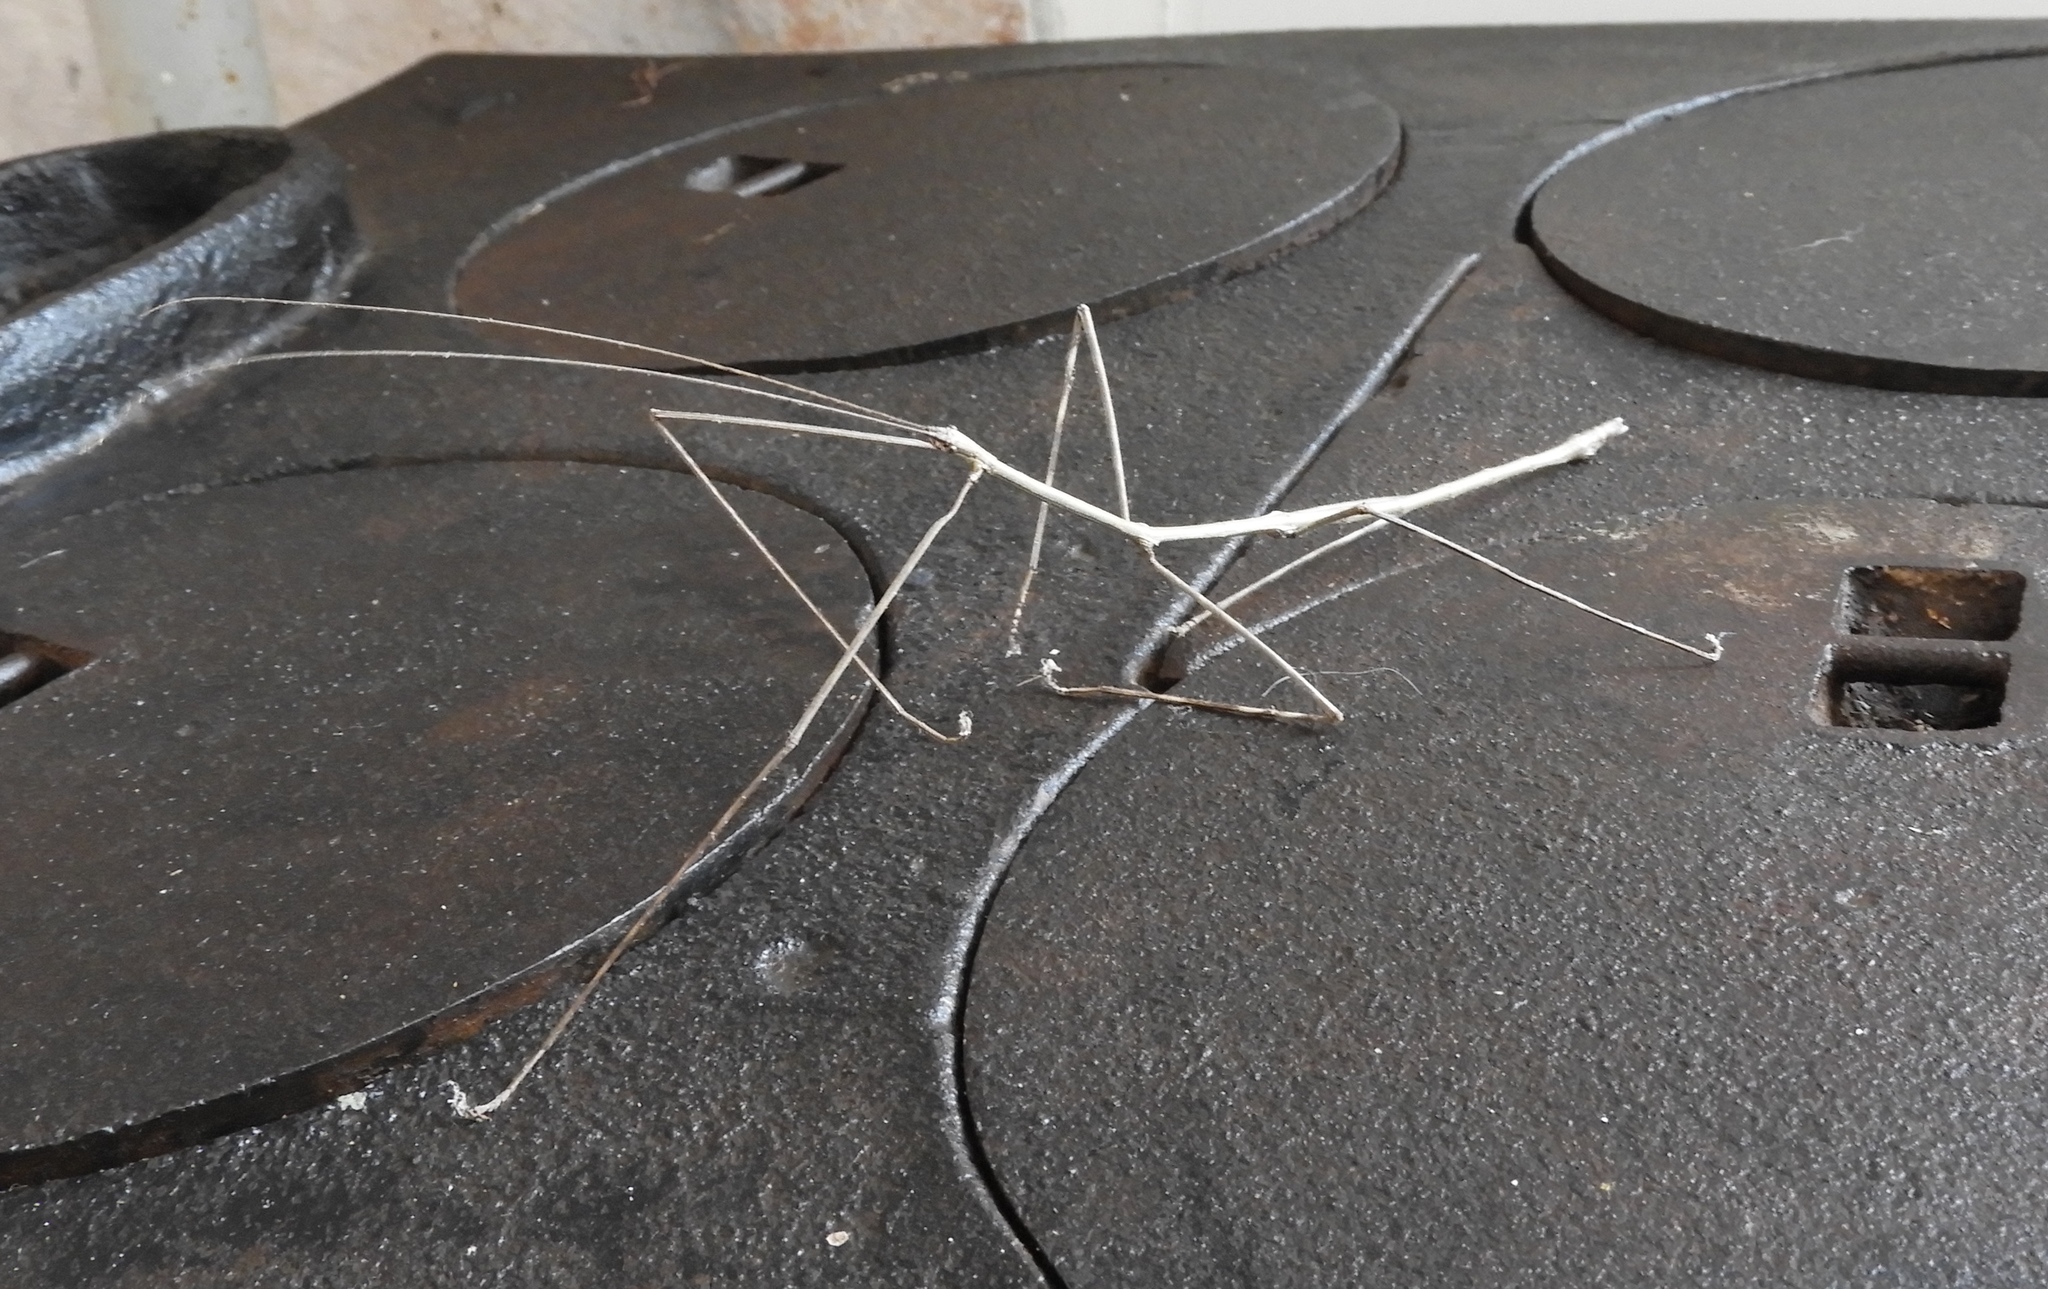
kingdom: Animalia
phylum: Arthropoda
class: Insecta
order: Phasmida
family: Diapheromeridae
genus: Pseudosermyle
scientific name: Pseudosermyle
